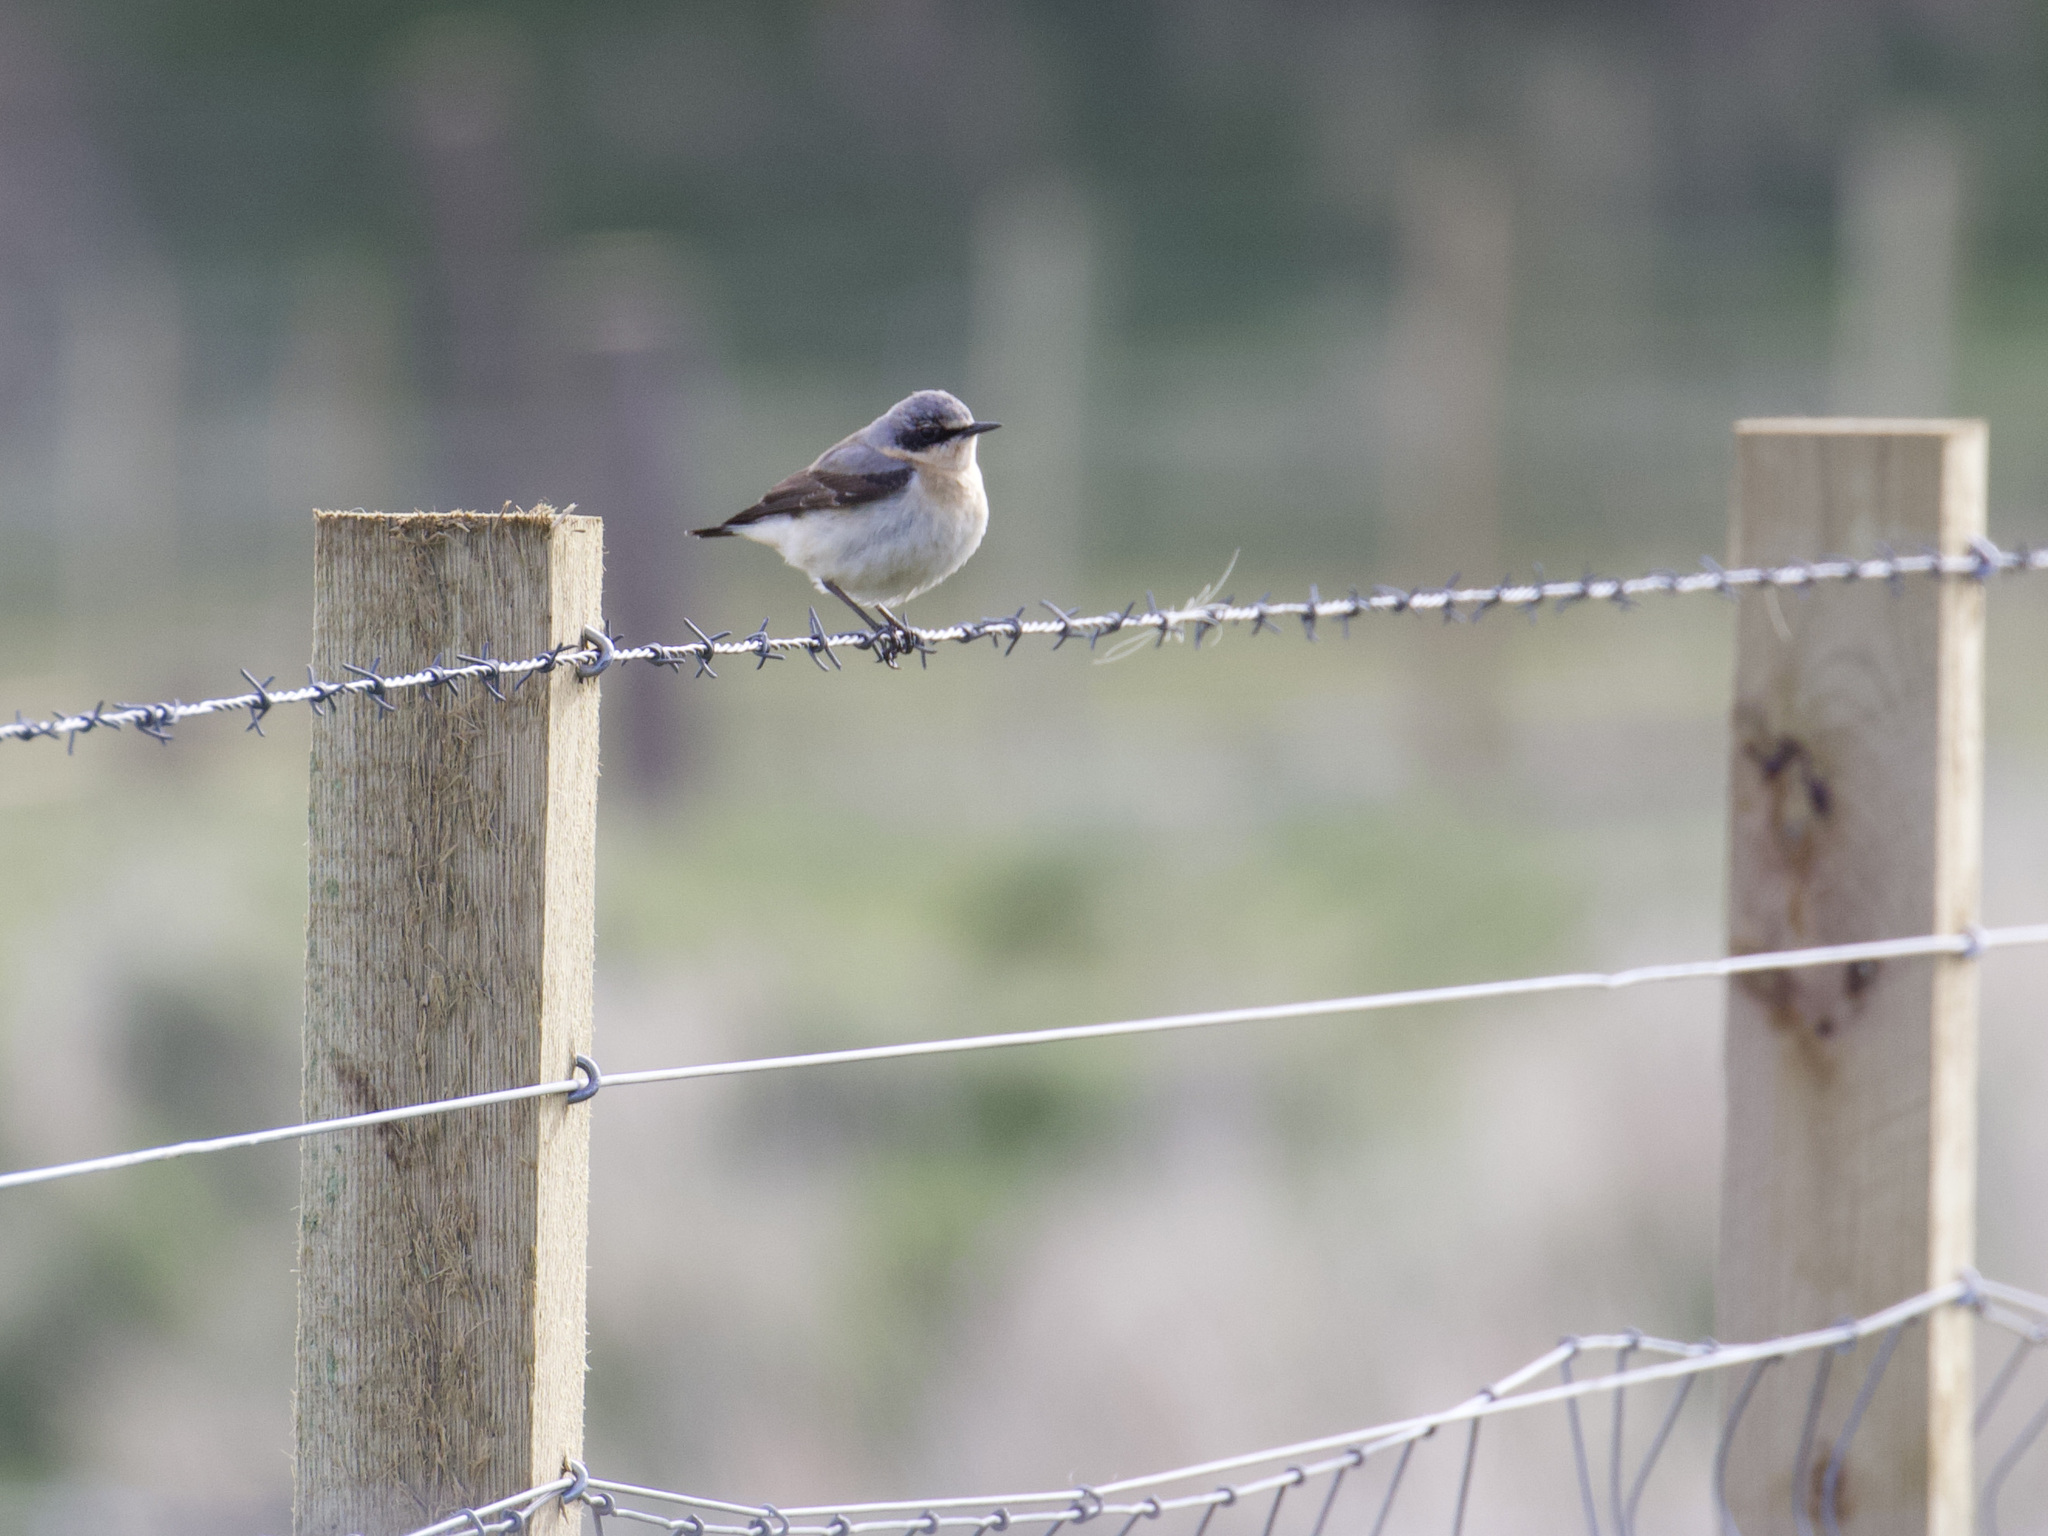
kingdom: Animalia
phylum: Chordata
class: Aves
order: Passeriformes
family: Muscicapidae
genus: Oenanthe
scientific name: Oenanthe oenanthe
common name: Northern wheatear
